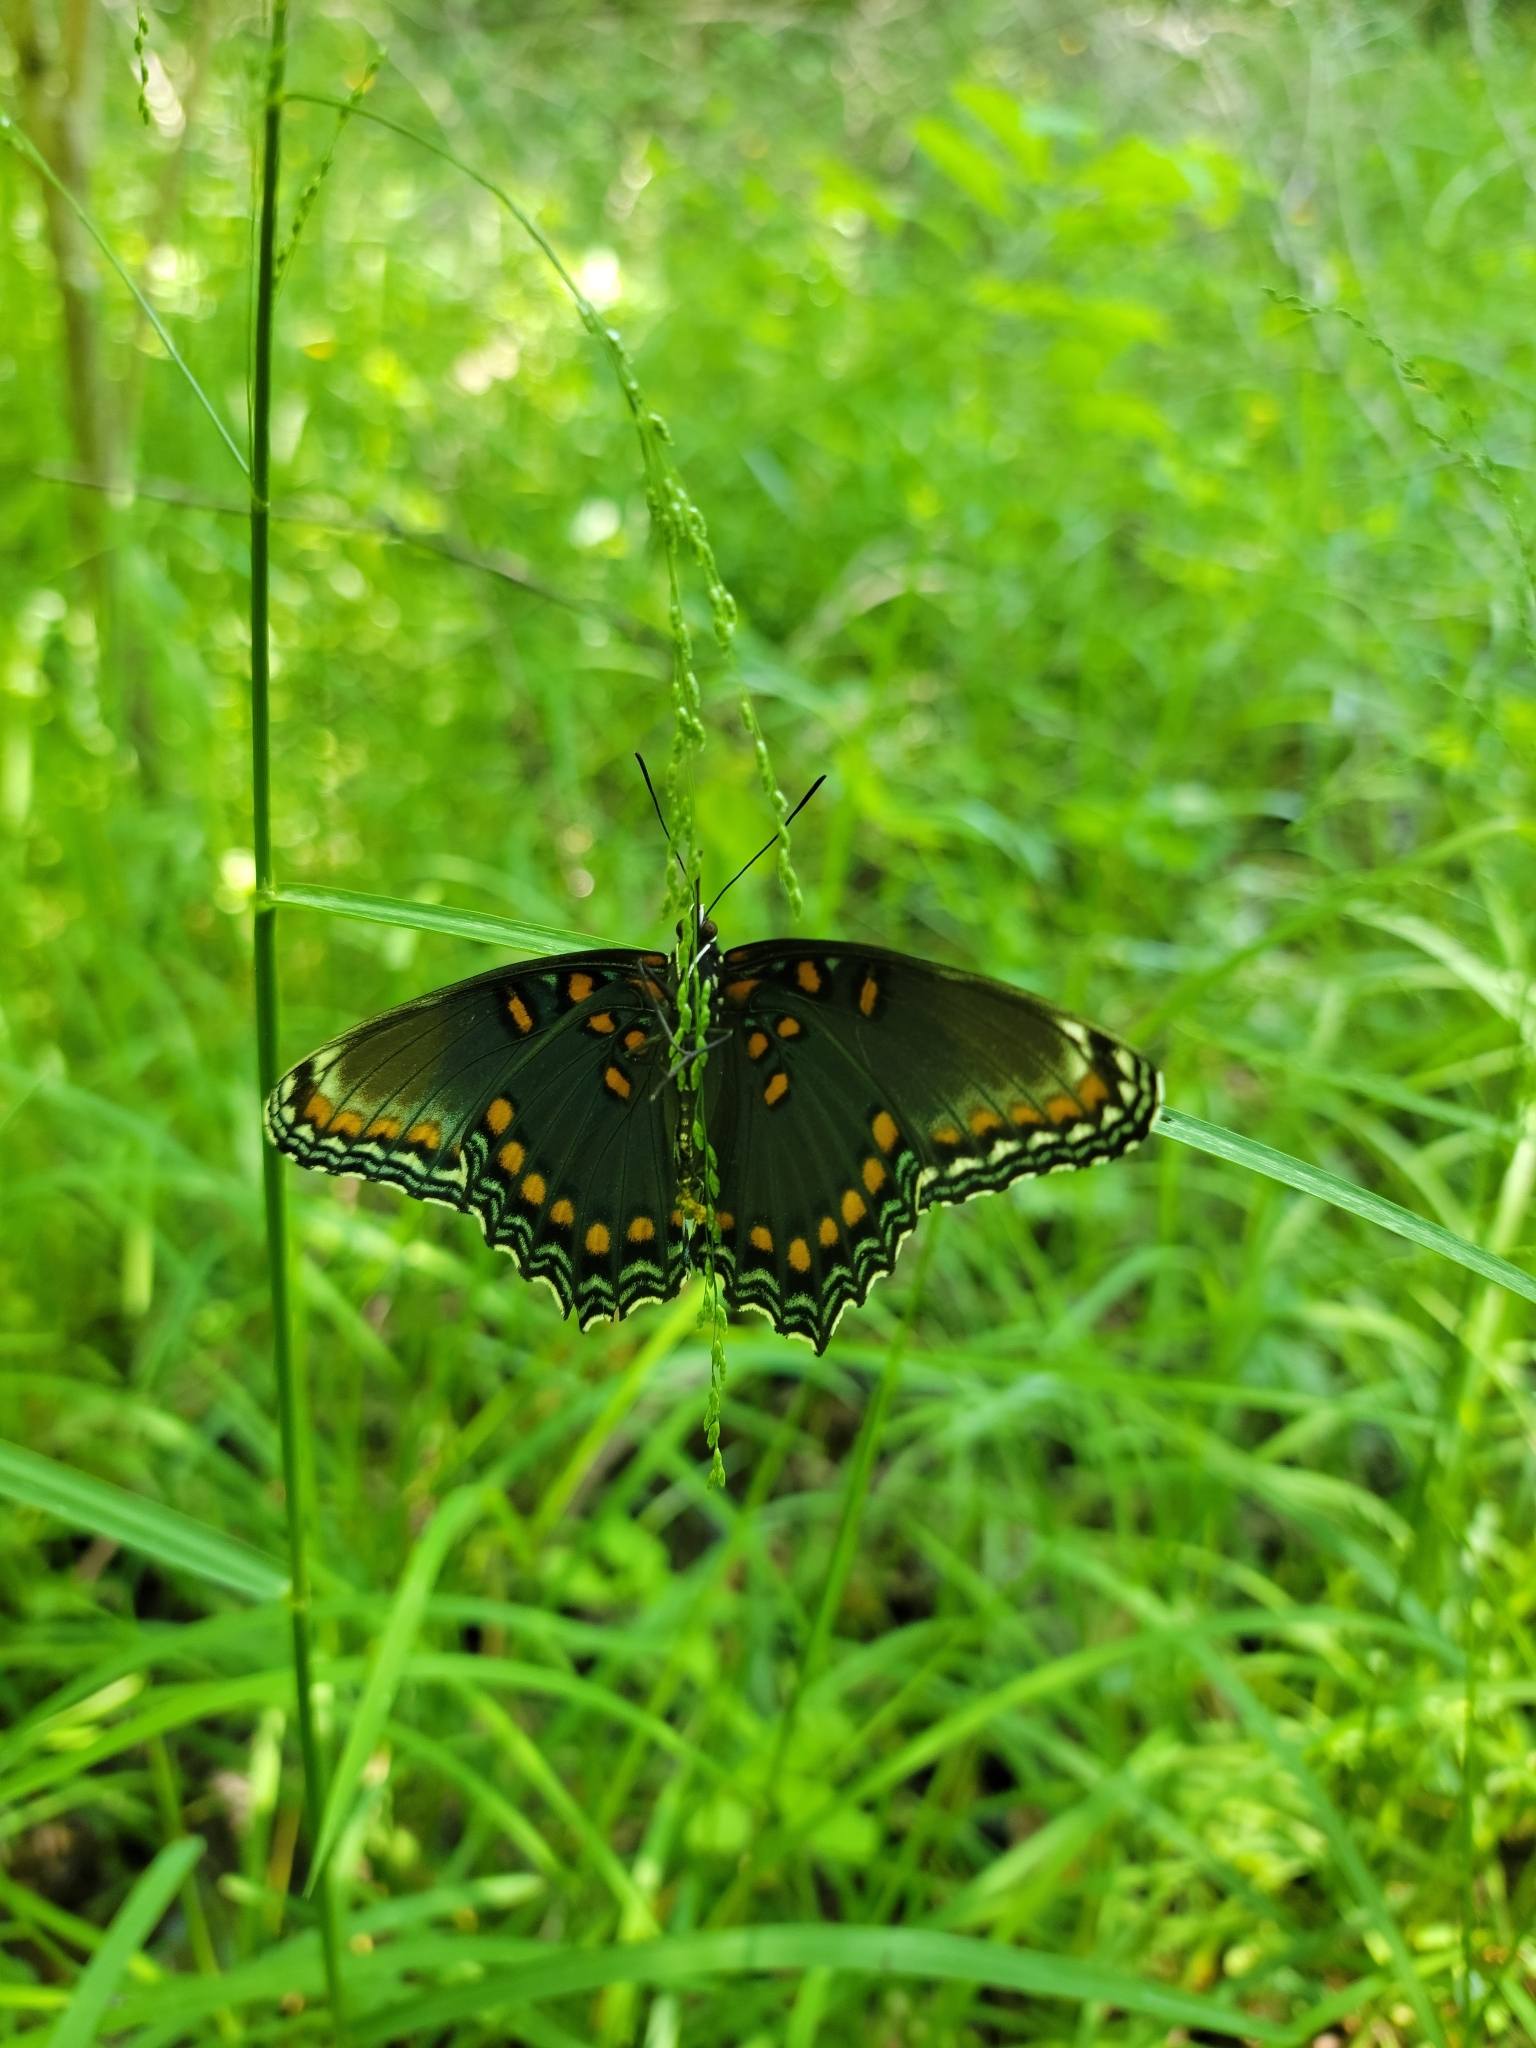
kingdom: Animalia
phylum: Arthropoda
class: Insecta
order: Lepidoptera
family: Nymphalidae
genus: Limenitis
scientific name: Limenitis astyanax
